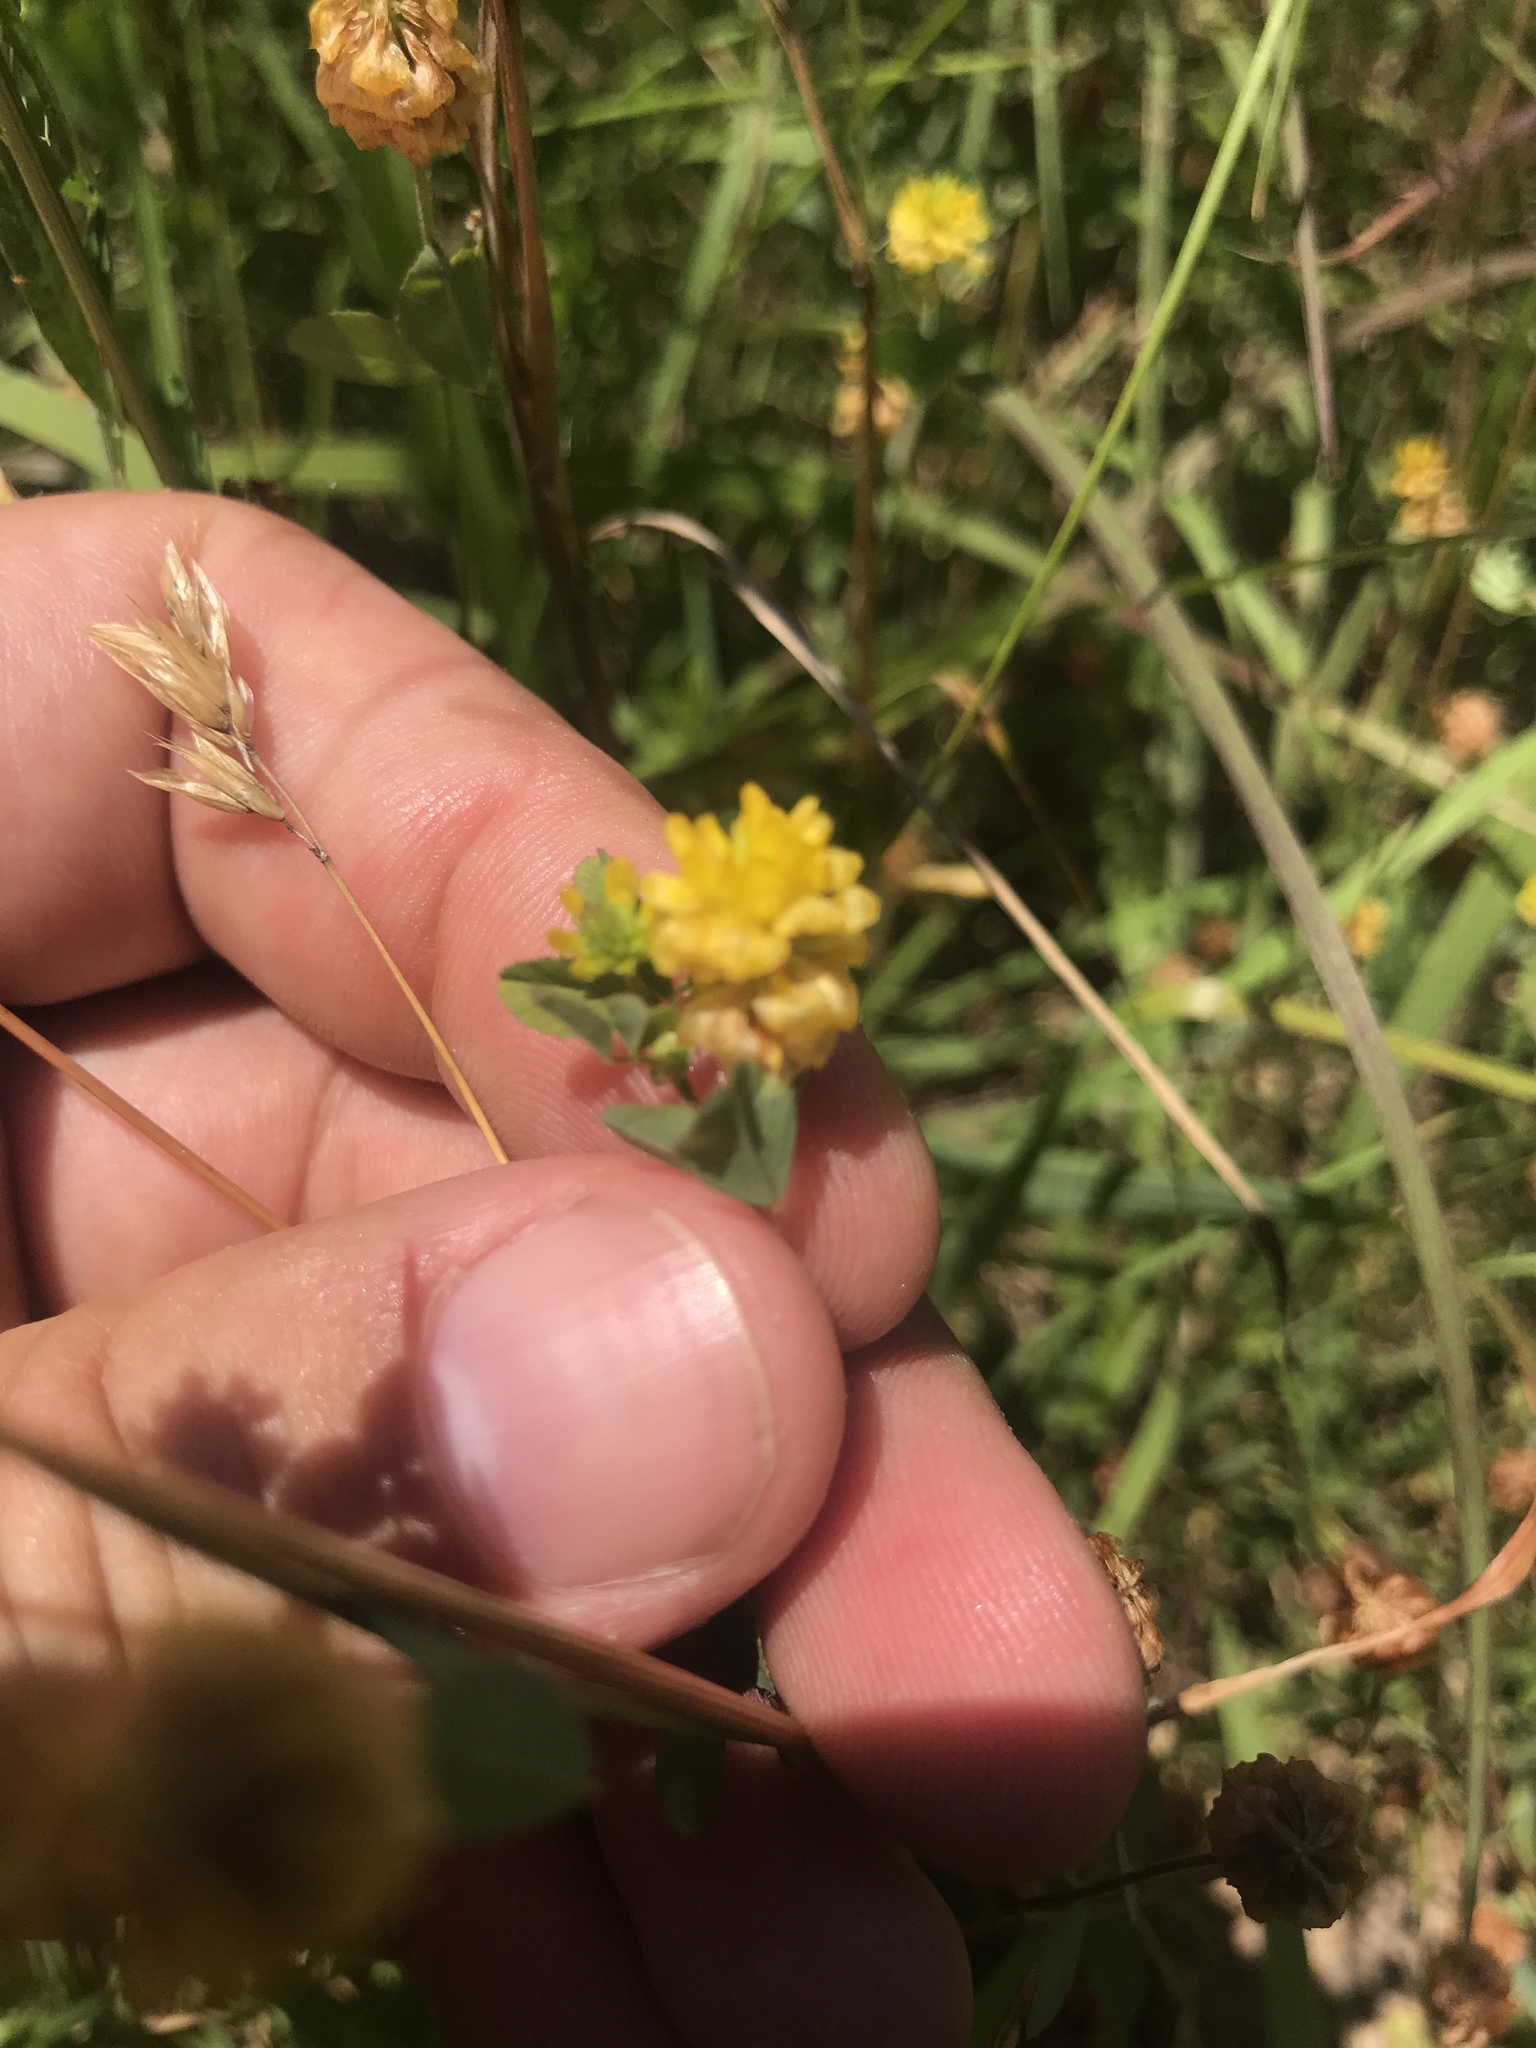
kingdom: Plantae
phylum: Tracheophyta
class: Magnoliopsida
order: Fabales
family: Fabaceae
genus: Trifolium
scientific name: Trifolium campestre
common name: Field clover
